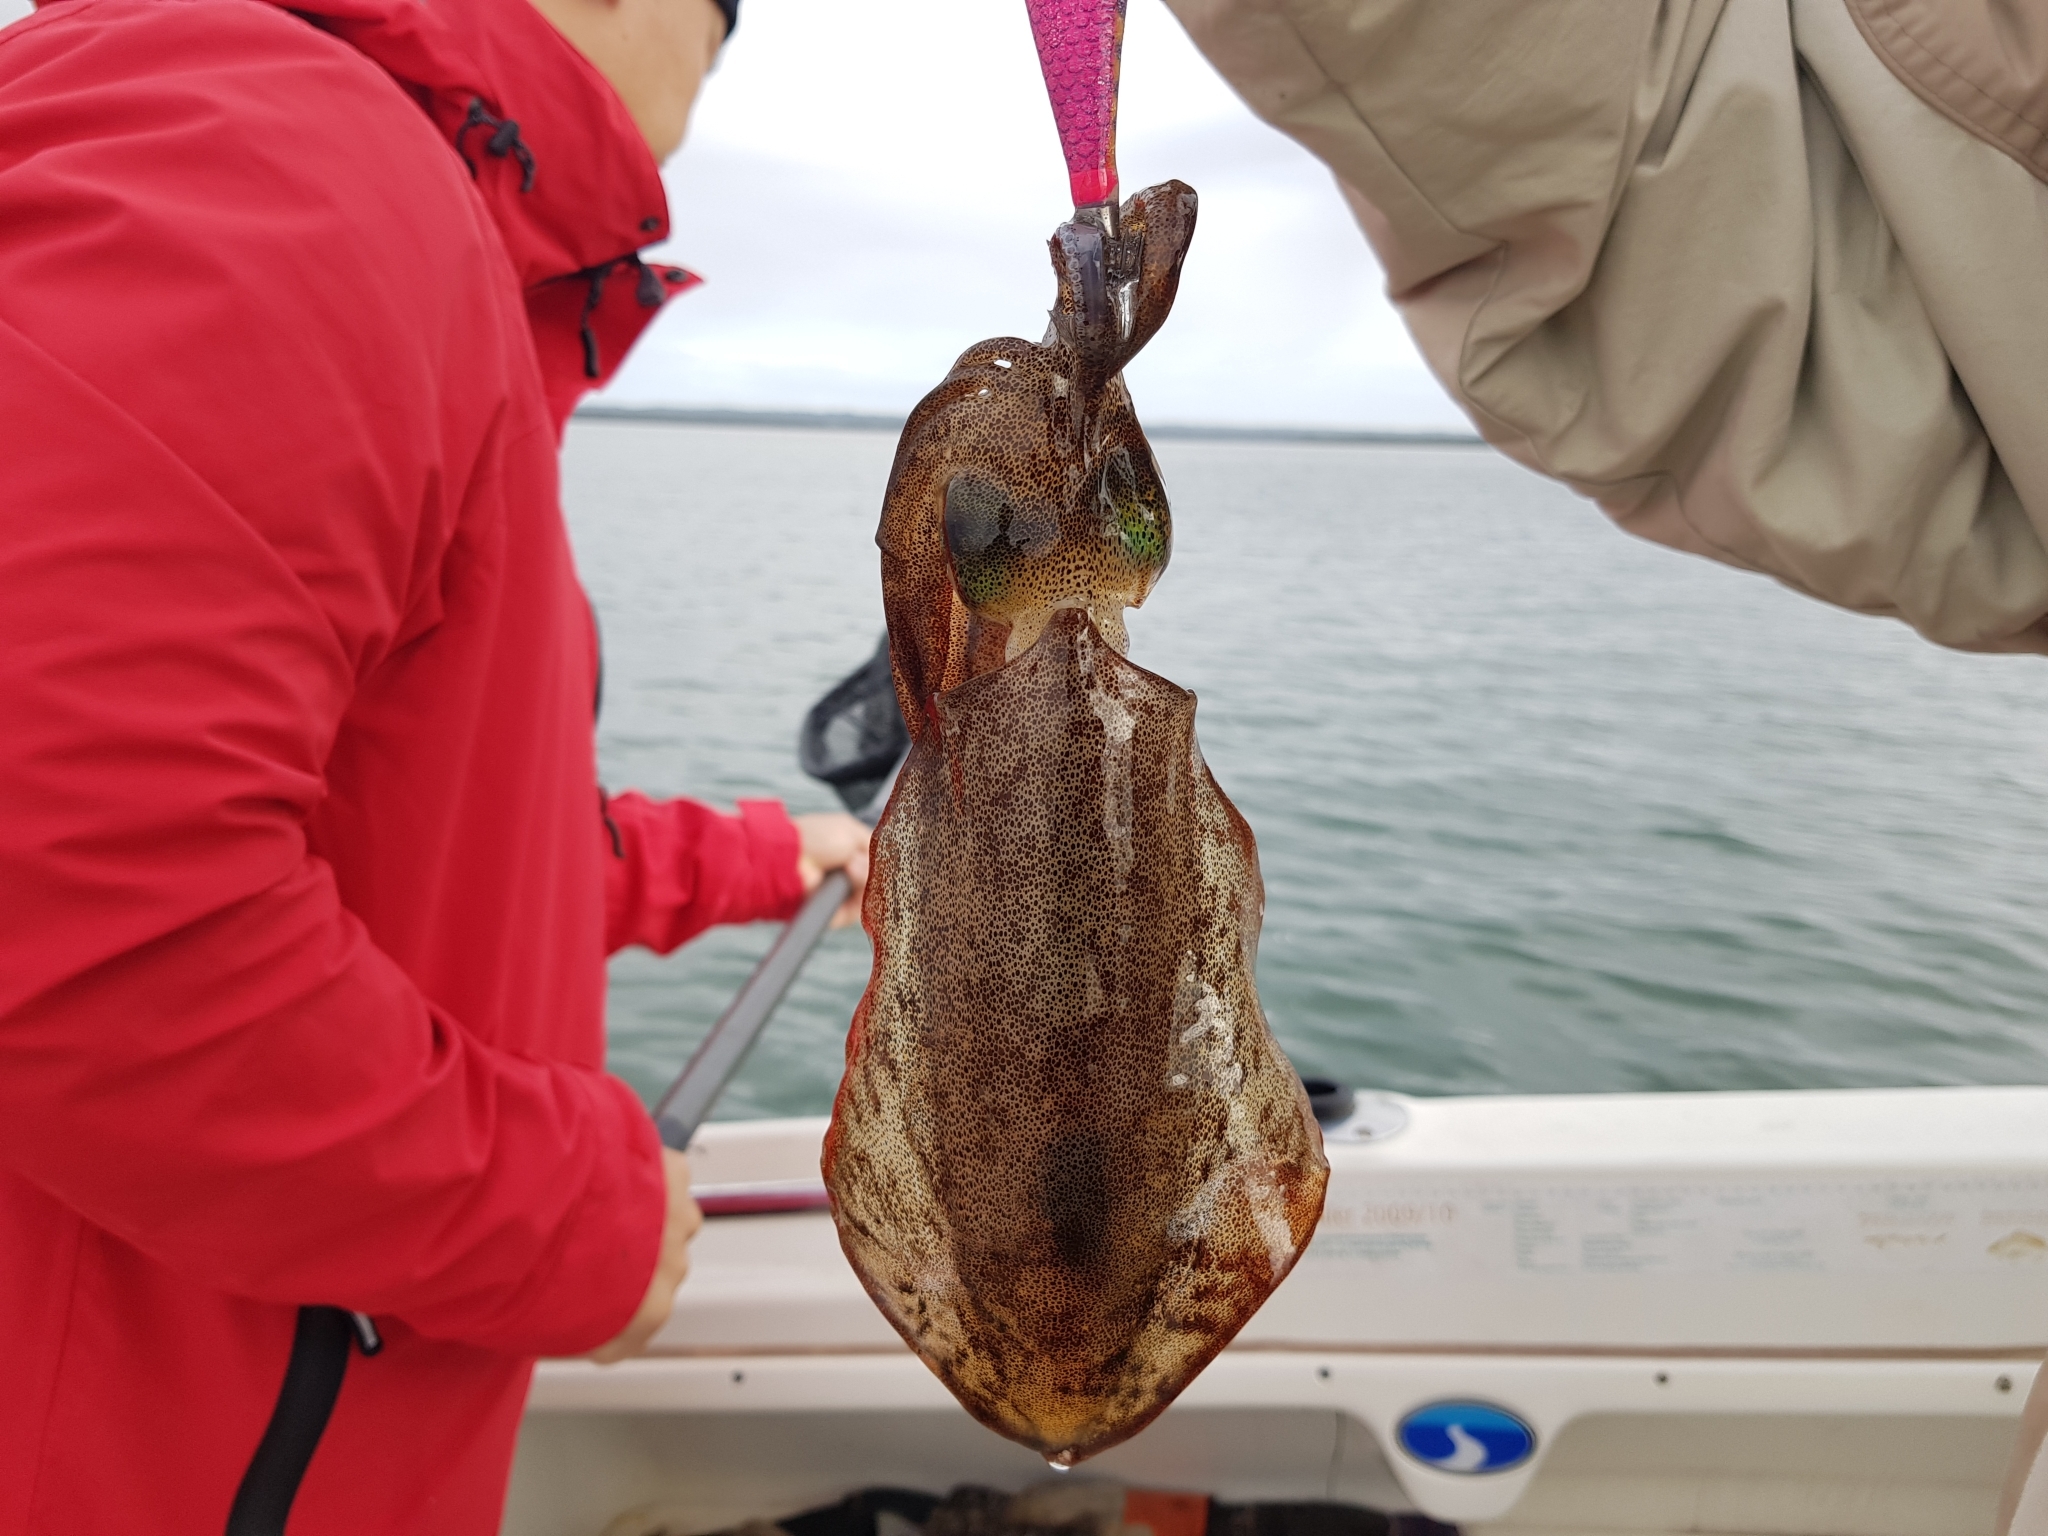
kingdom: Animalia
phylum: Mollusca
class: Cephalopoda
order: Myopsida
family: Loliginidae
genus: Sepioteuthis
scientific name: Sepioteuthis australis
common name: Southern reef squid
